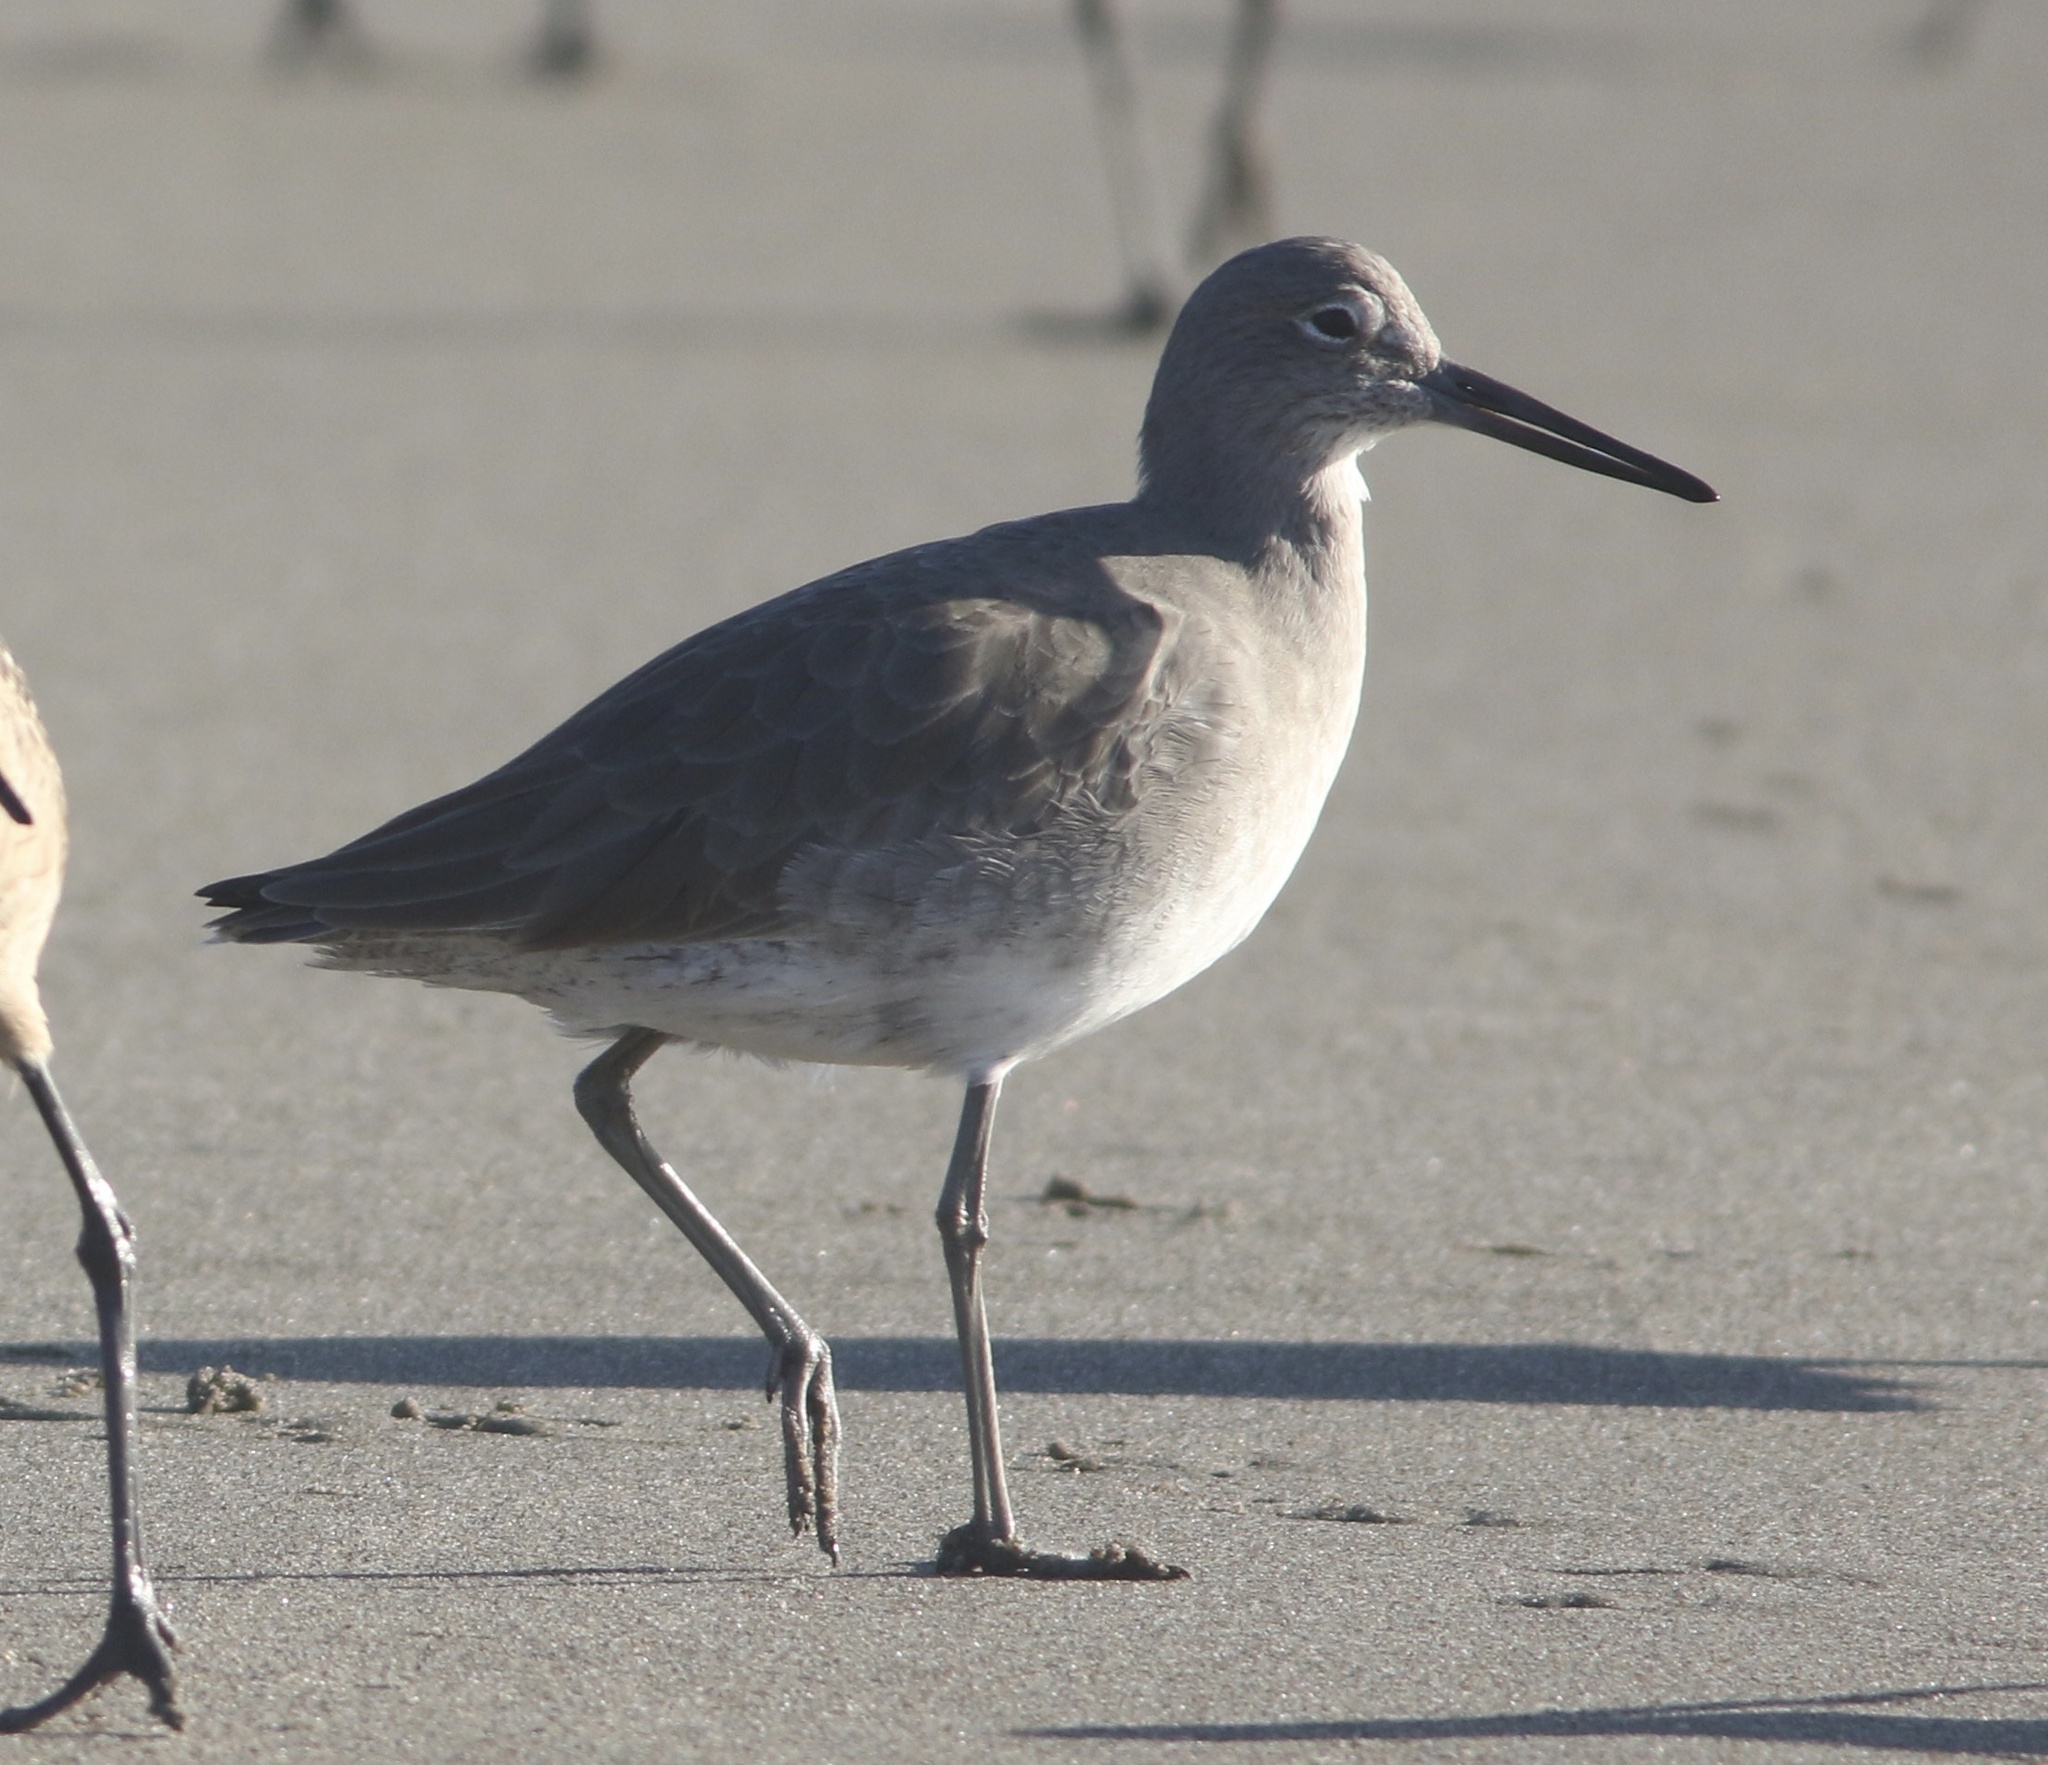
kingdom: Animalia
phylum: Chordata
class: Aves
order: Charadriiformes
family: Scolopacidae
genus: Tringa
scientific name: Tringa semipalmata
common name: Willet
